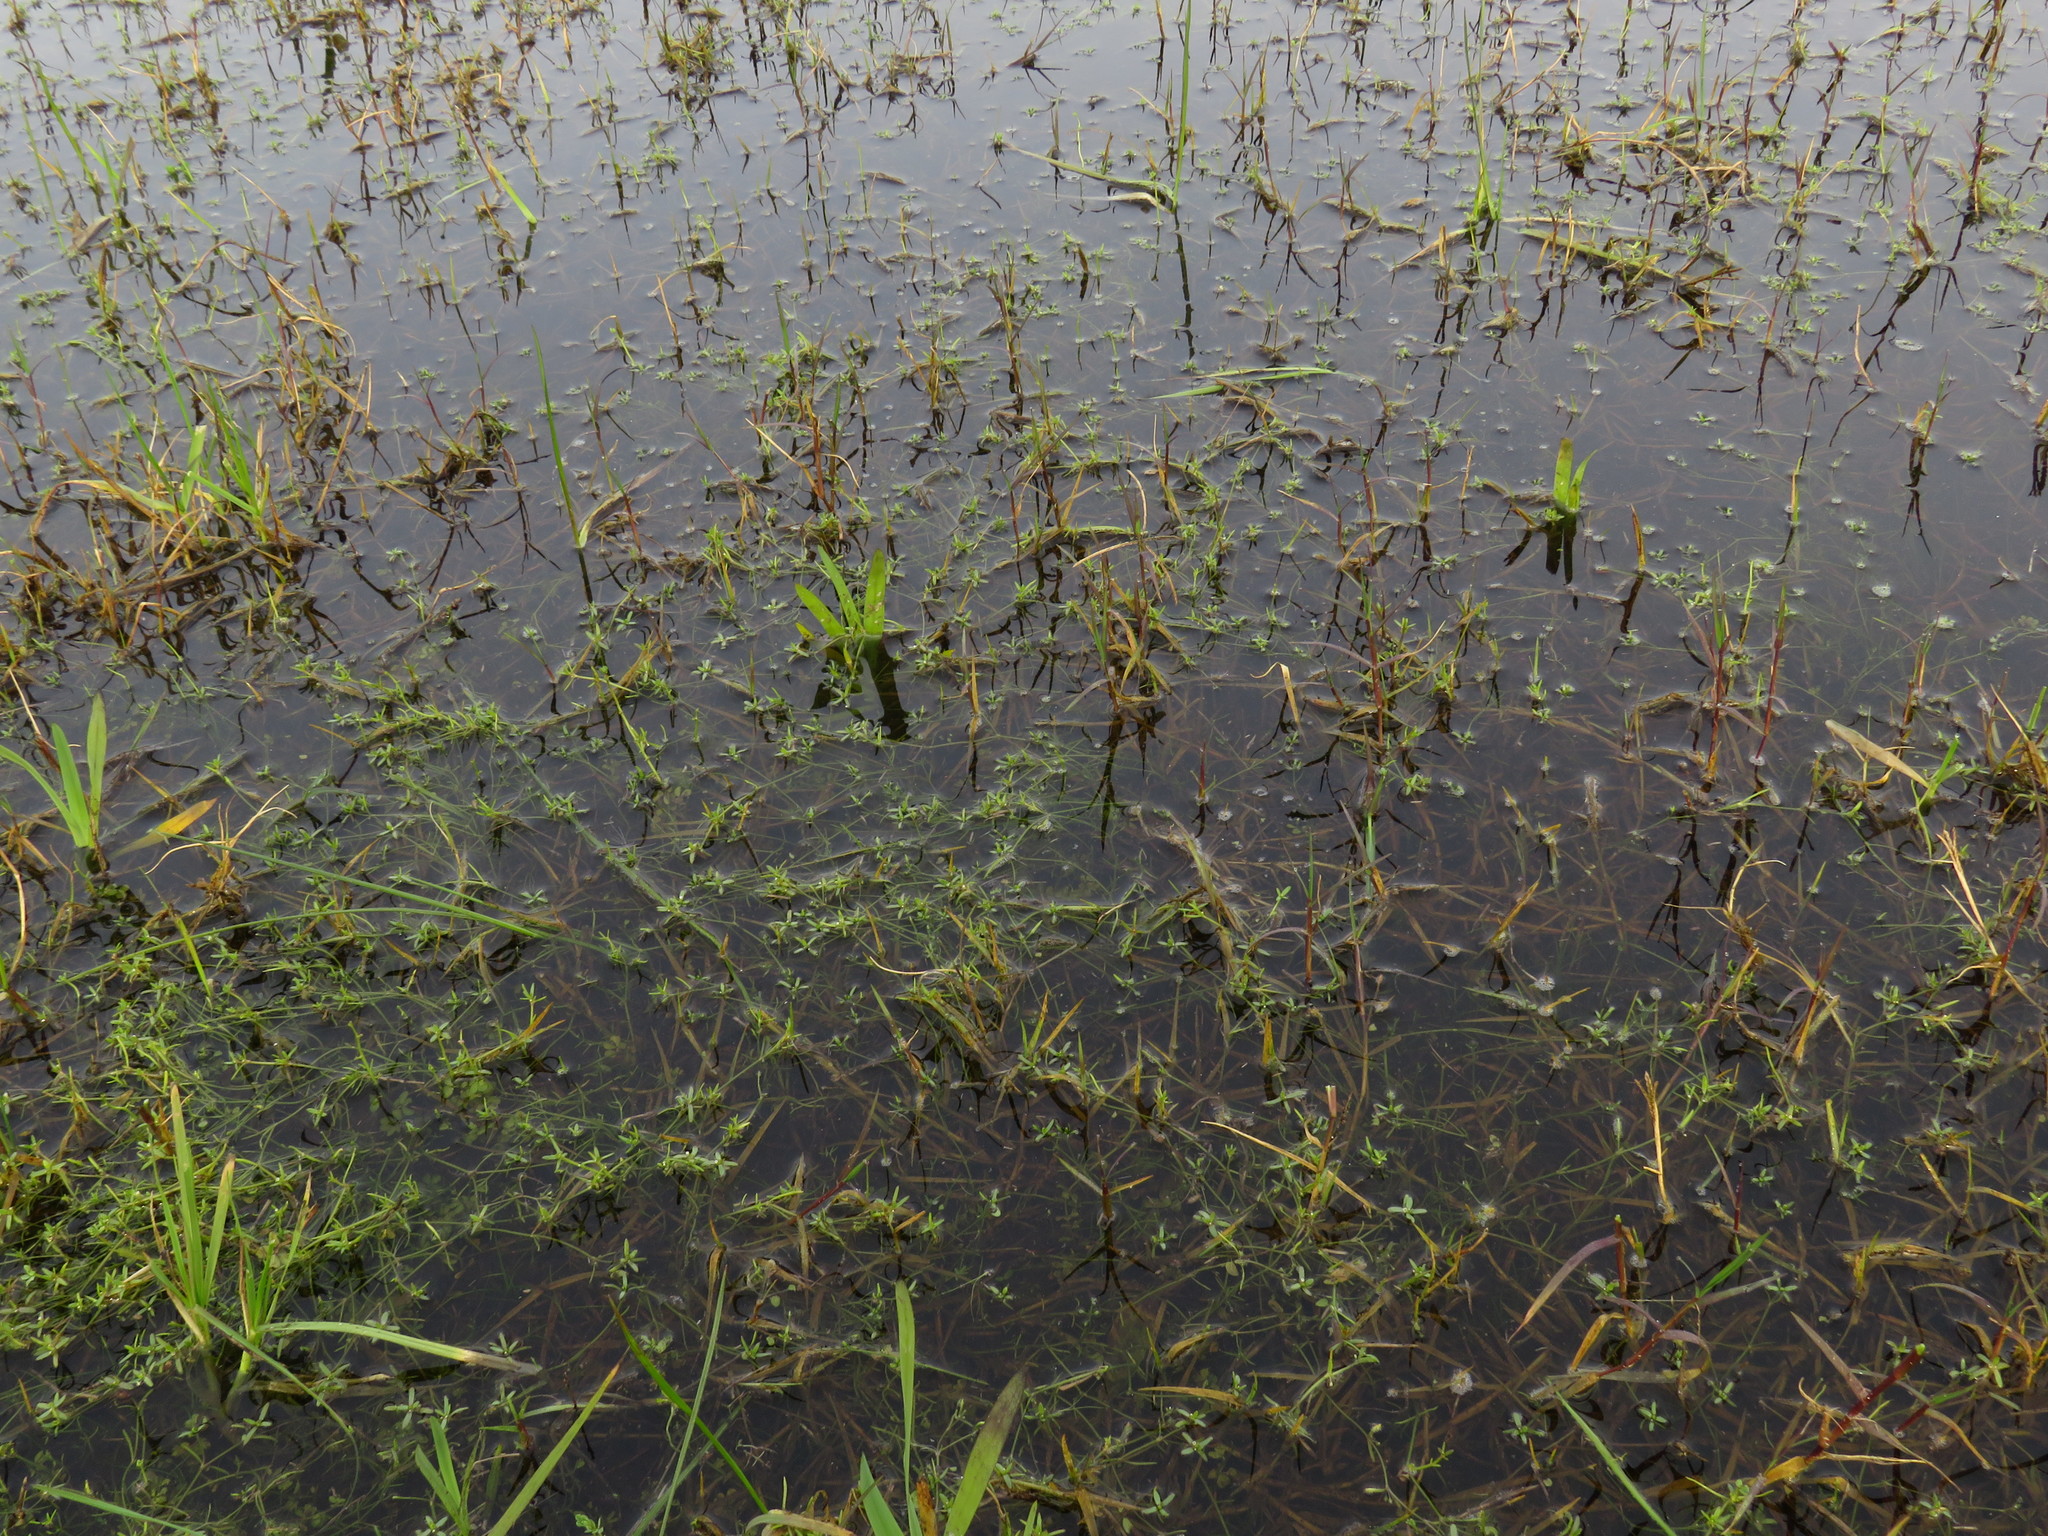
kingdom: Plantae
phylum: Tracheophyta
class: Magnoliopsida
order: Saxifragales
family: Crassulaceae
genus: Crassula
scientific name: Crassula natans
